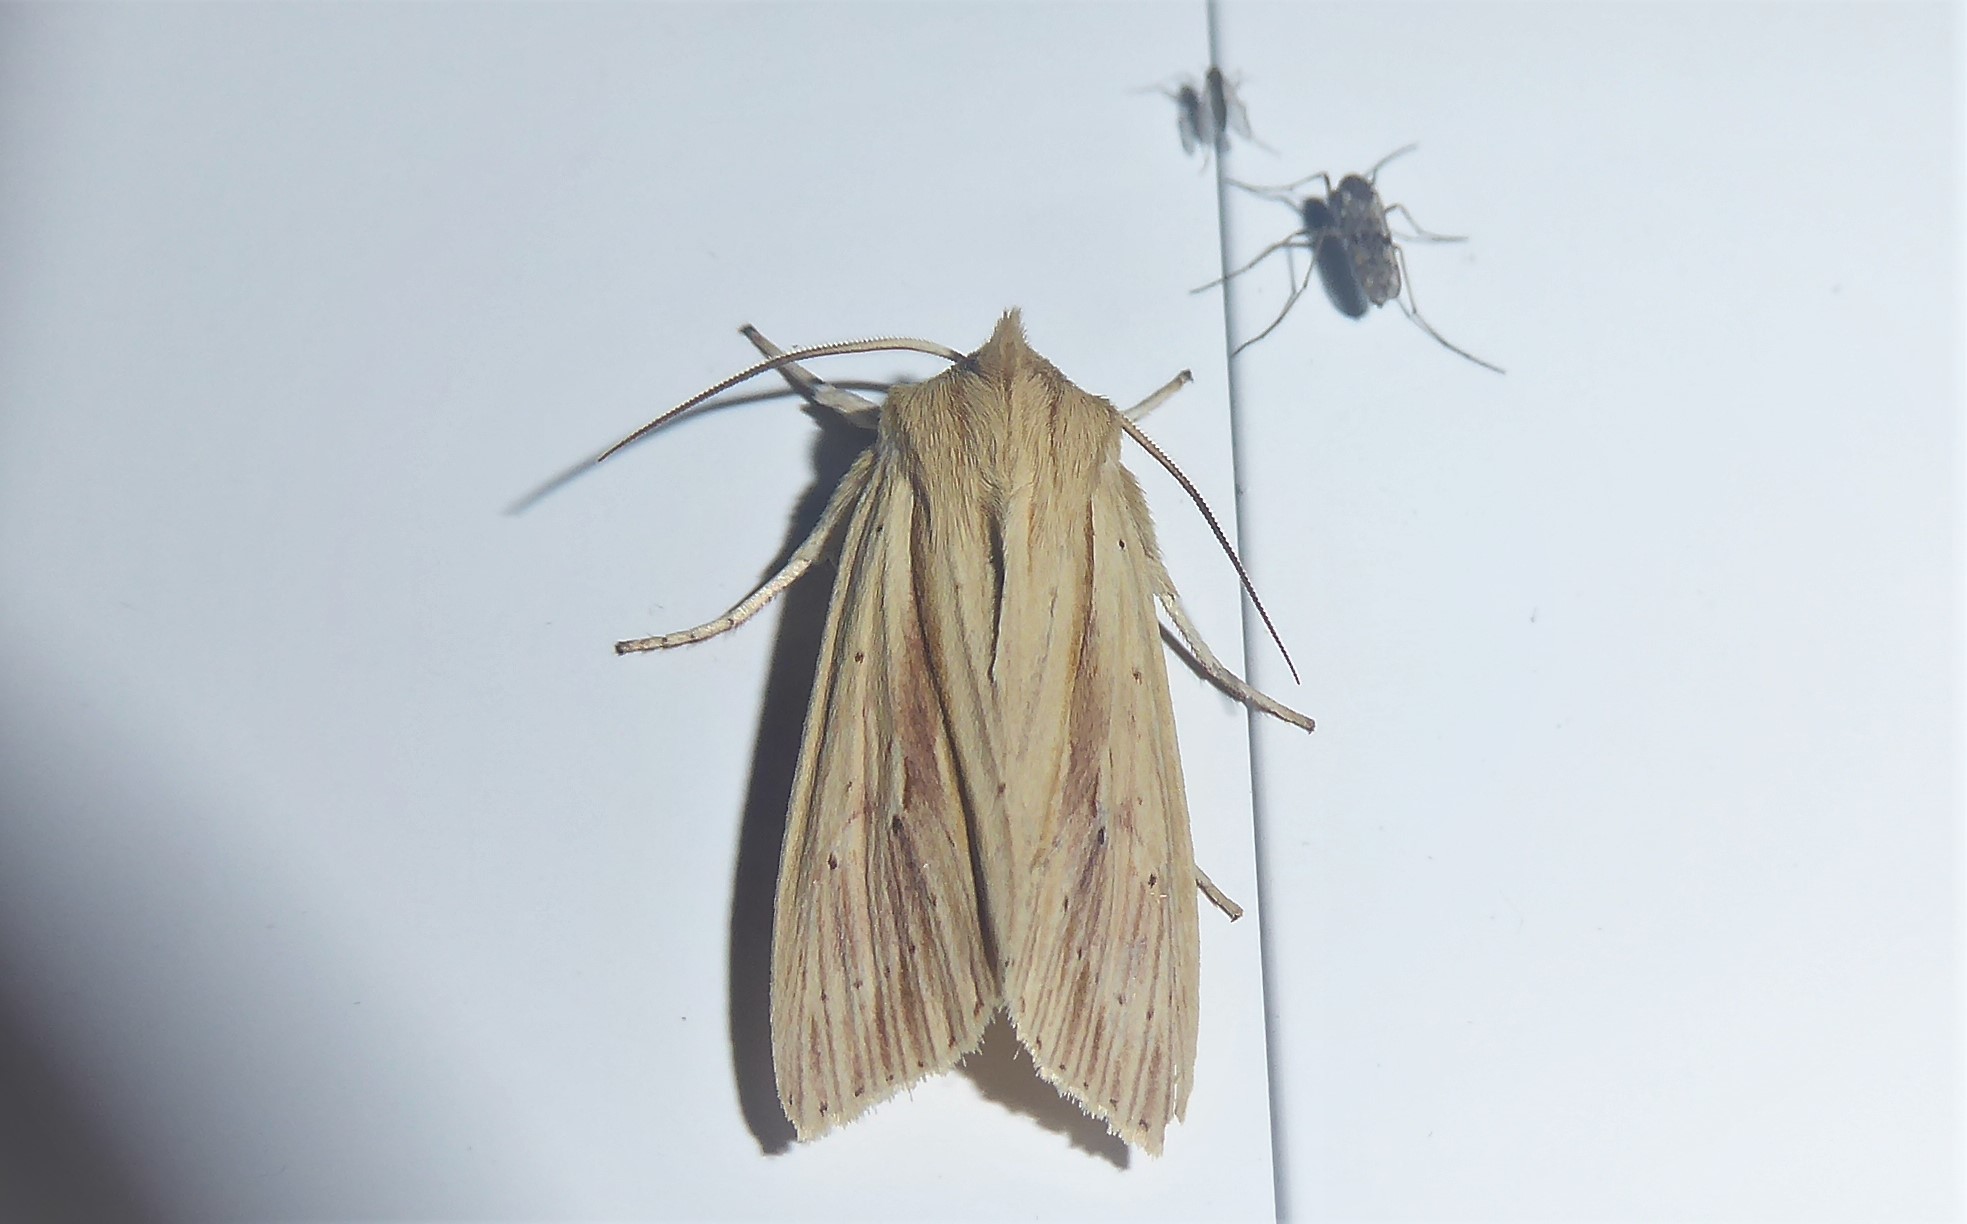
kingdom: Animalia
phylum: Arthropoda
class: Insecta
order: Lepidoptera
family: Noctuidae
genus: Ichneutica
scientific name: Ichneutica semivittata
